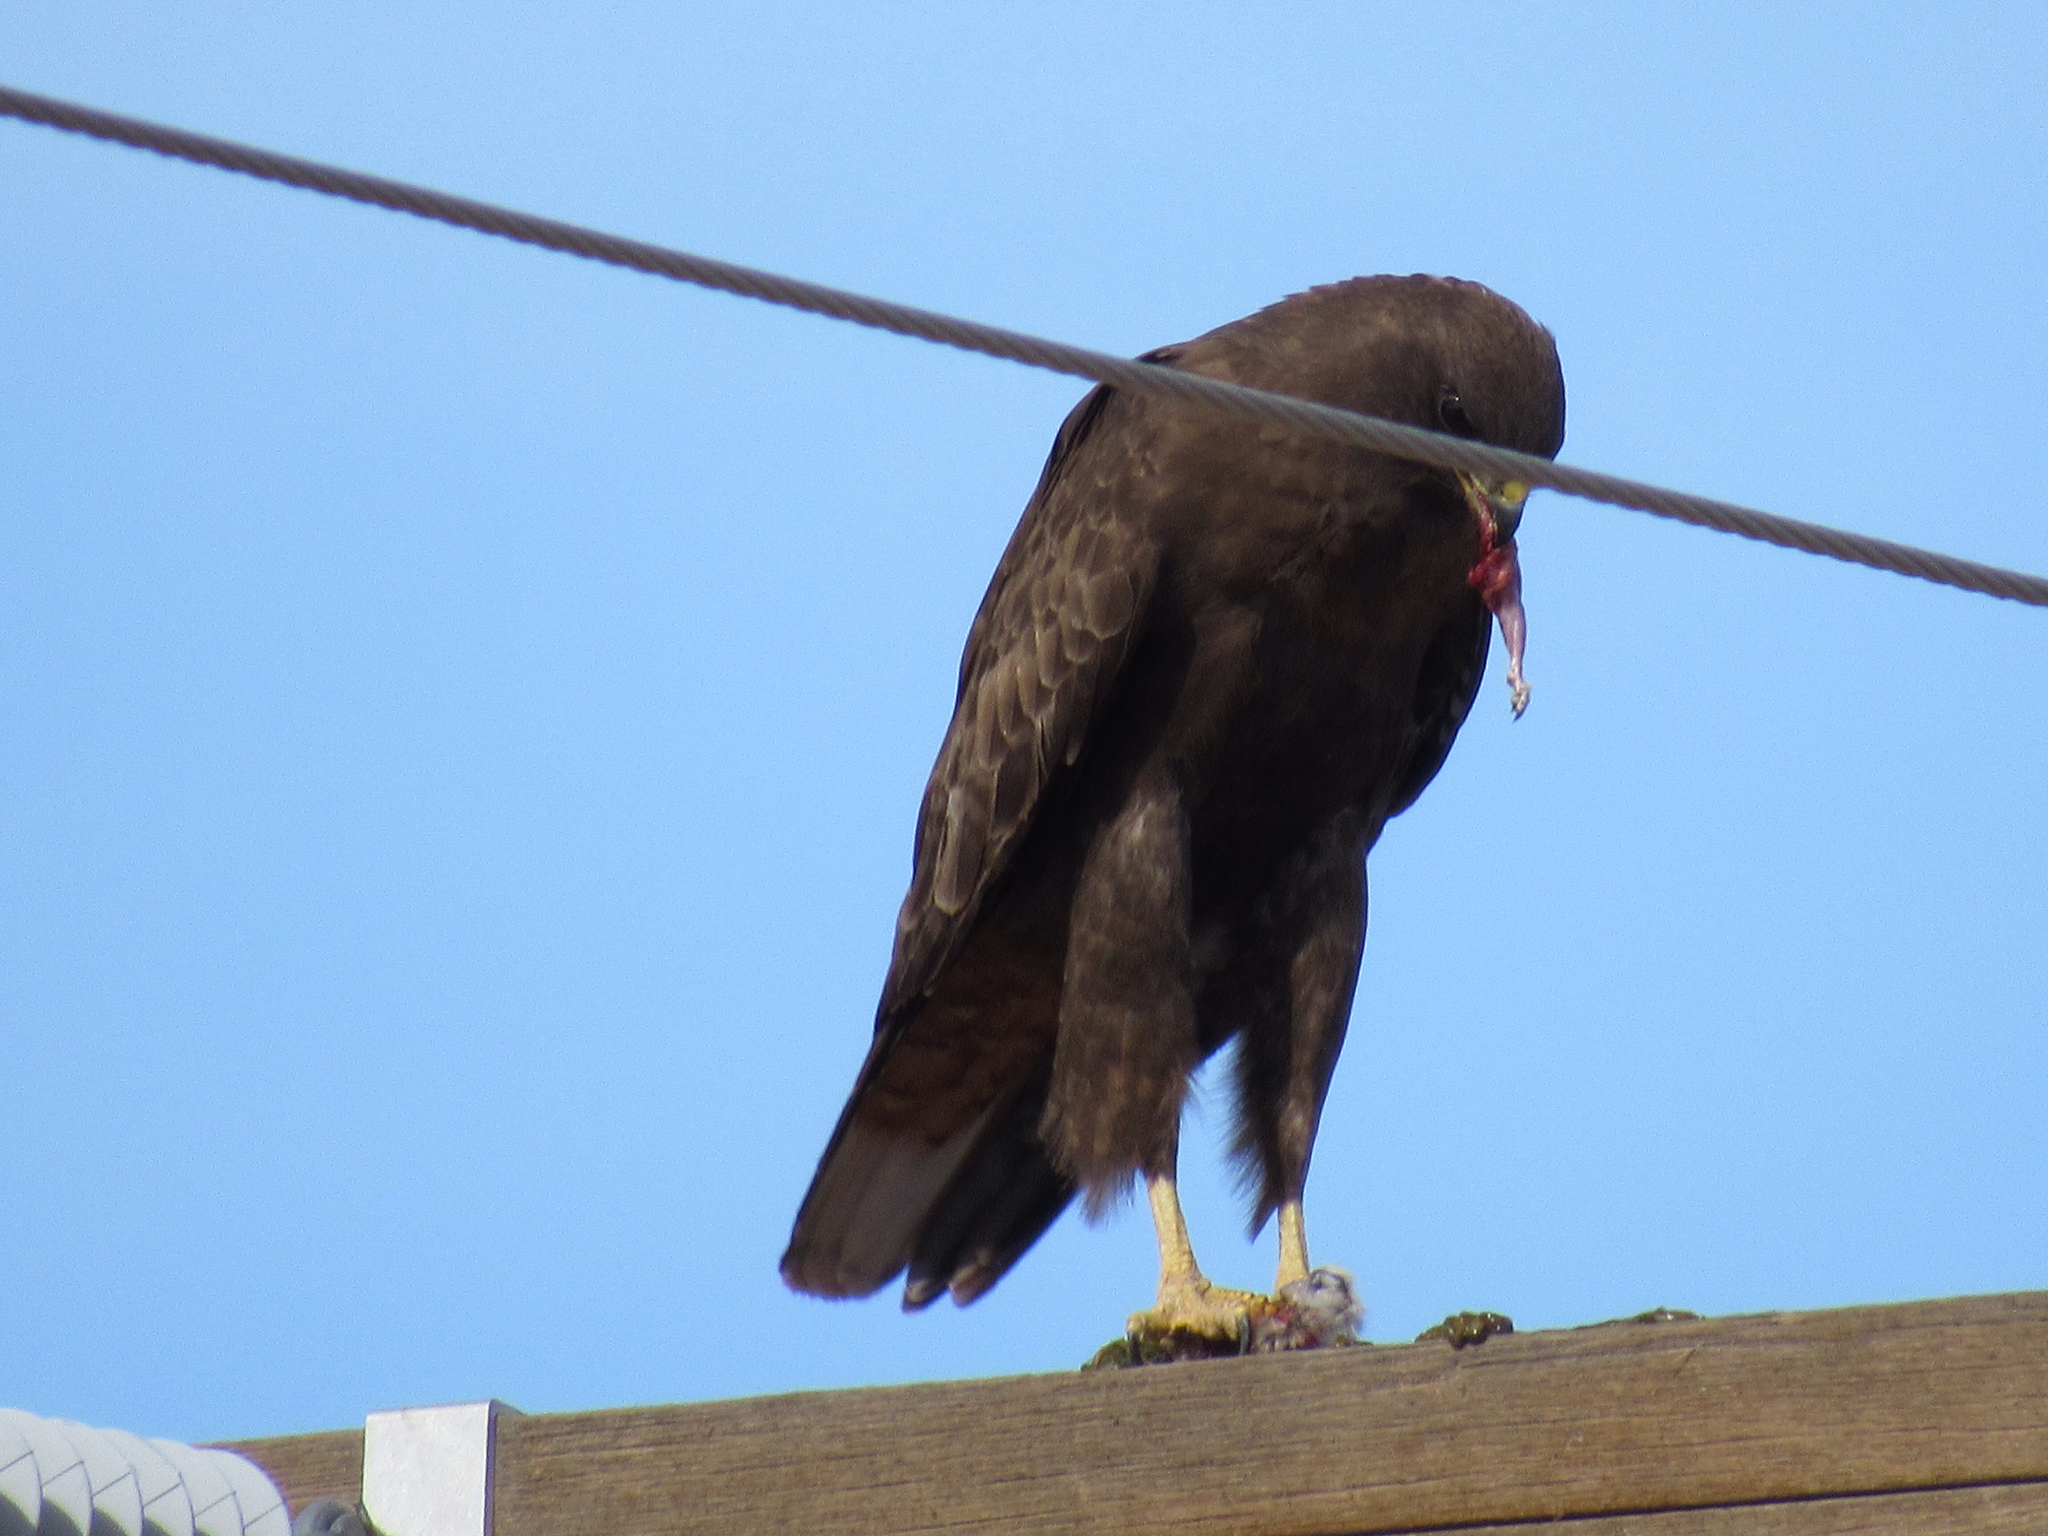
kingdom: Animalia
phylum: Chordata
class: Aves
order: Accipitriformes
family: Accipitridae
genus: Buteo
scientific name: Buteo jamaicensis
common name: Red-tailed hawk
